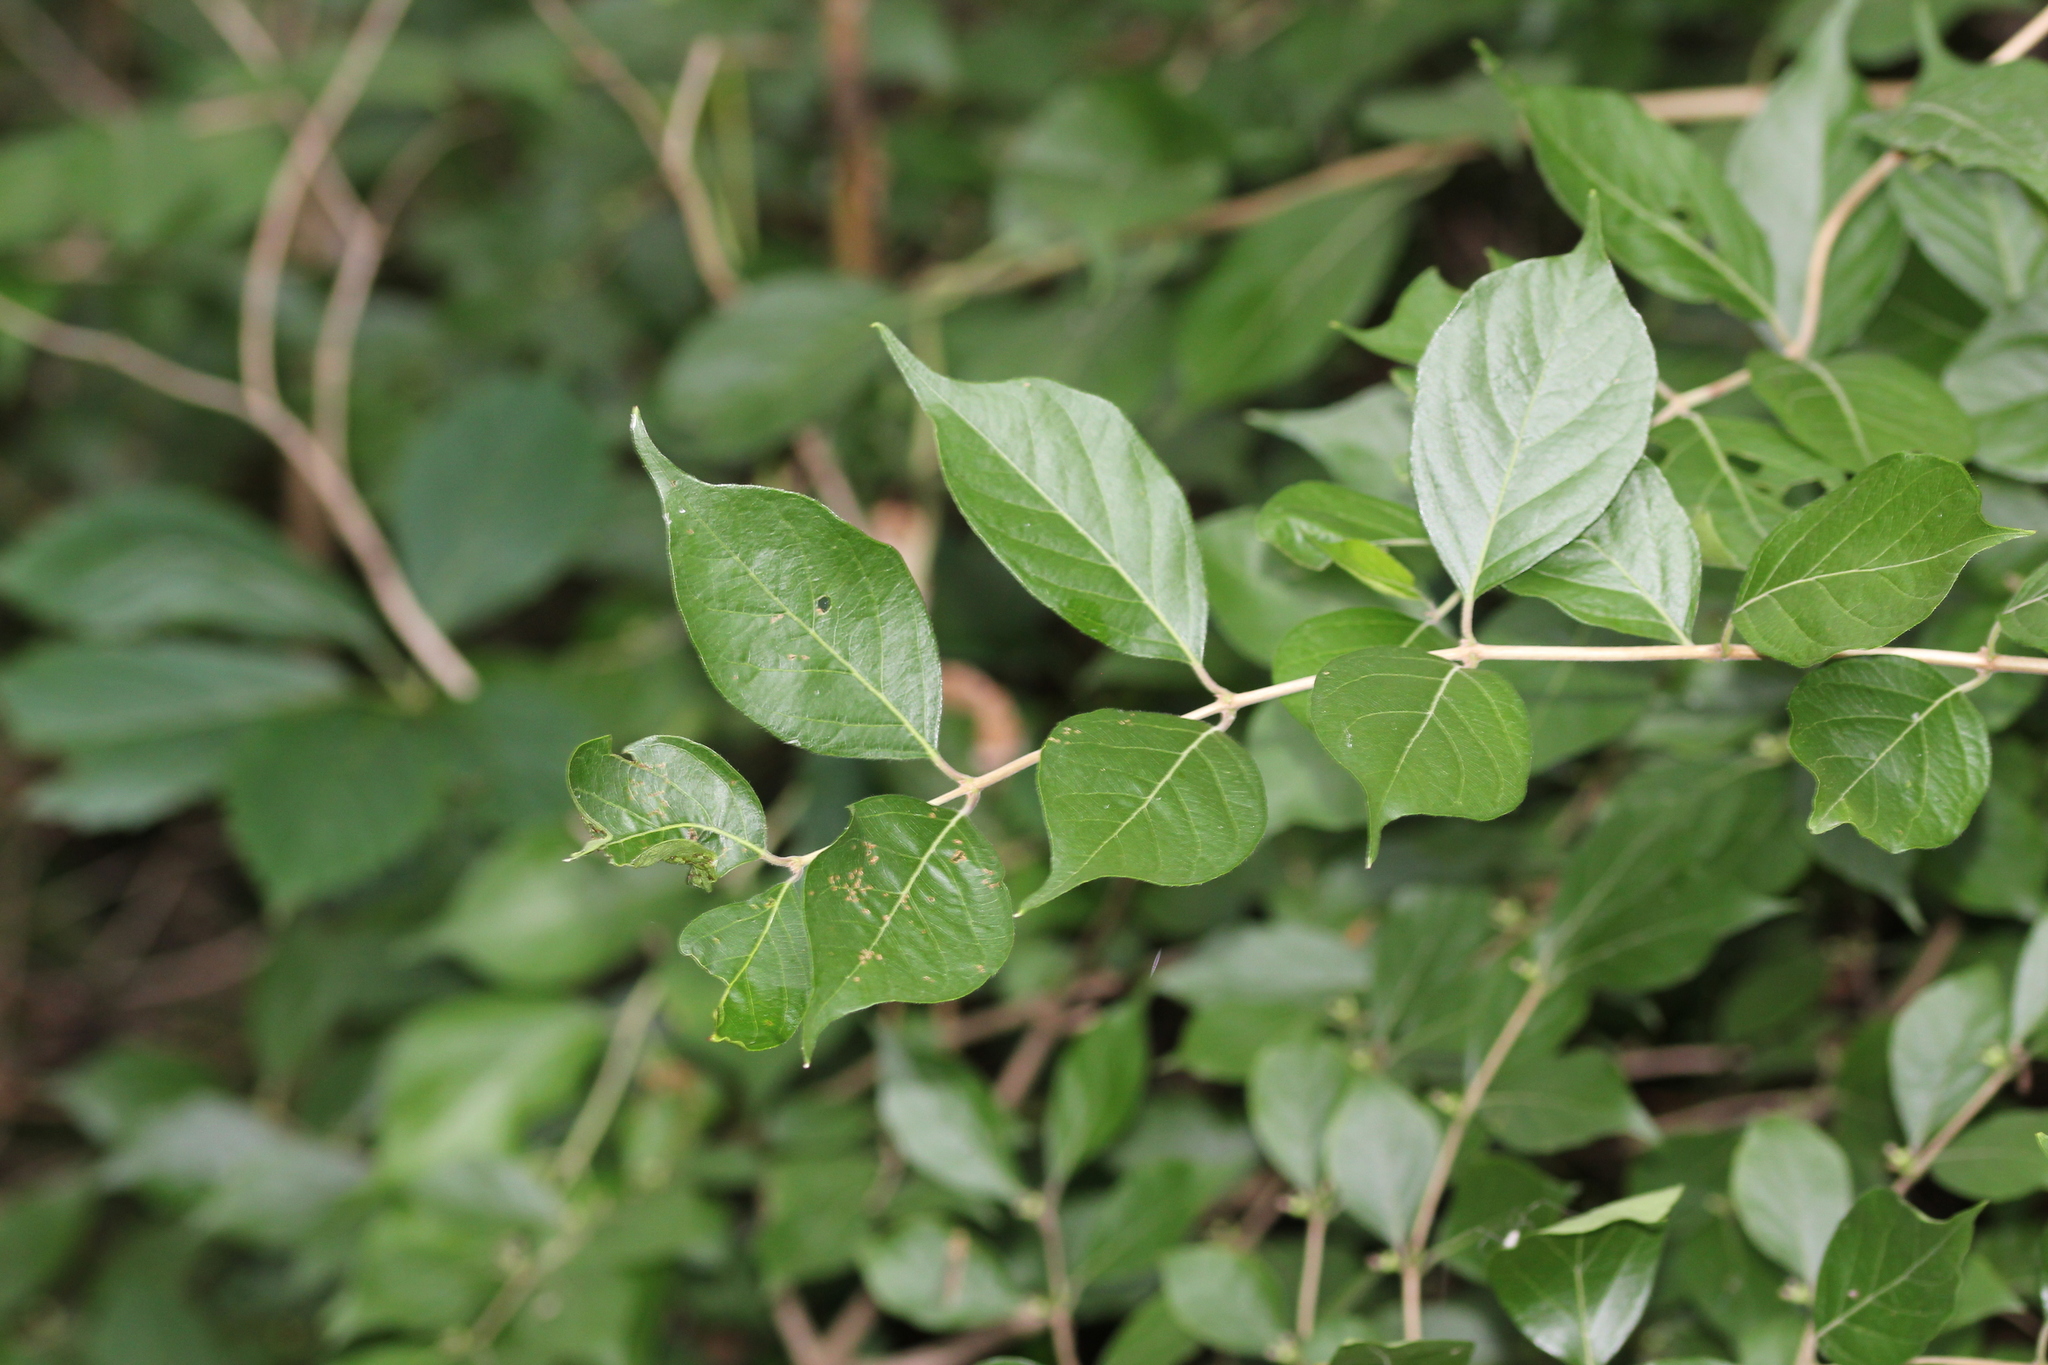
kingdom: Plantae
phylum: Tracheophyta
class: Magnoliopsida
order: Dipsacales
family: Caprifoliaceae
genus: Lonicera
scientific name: Lonicera maackii
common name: Amur honeysuckle
